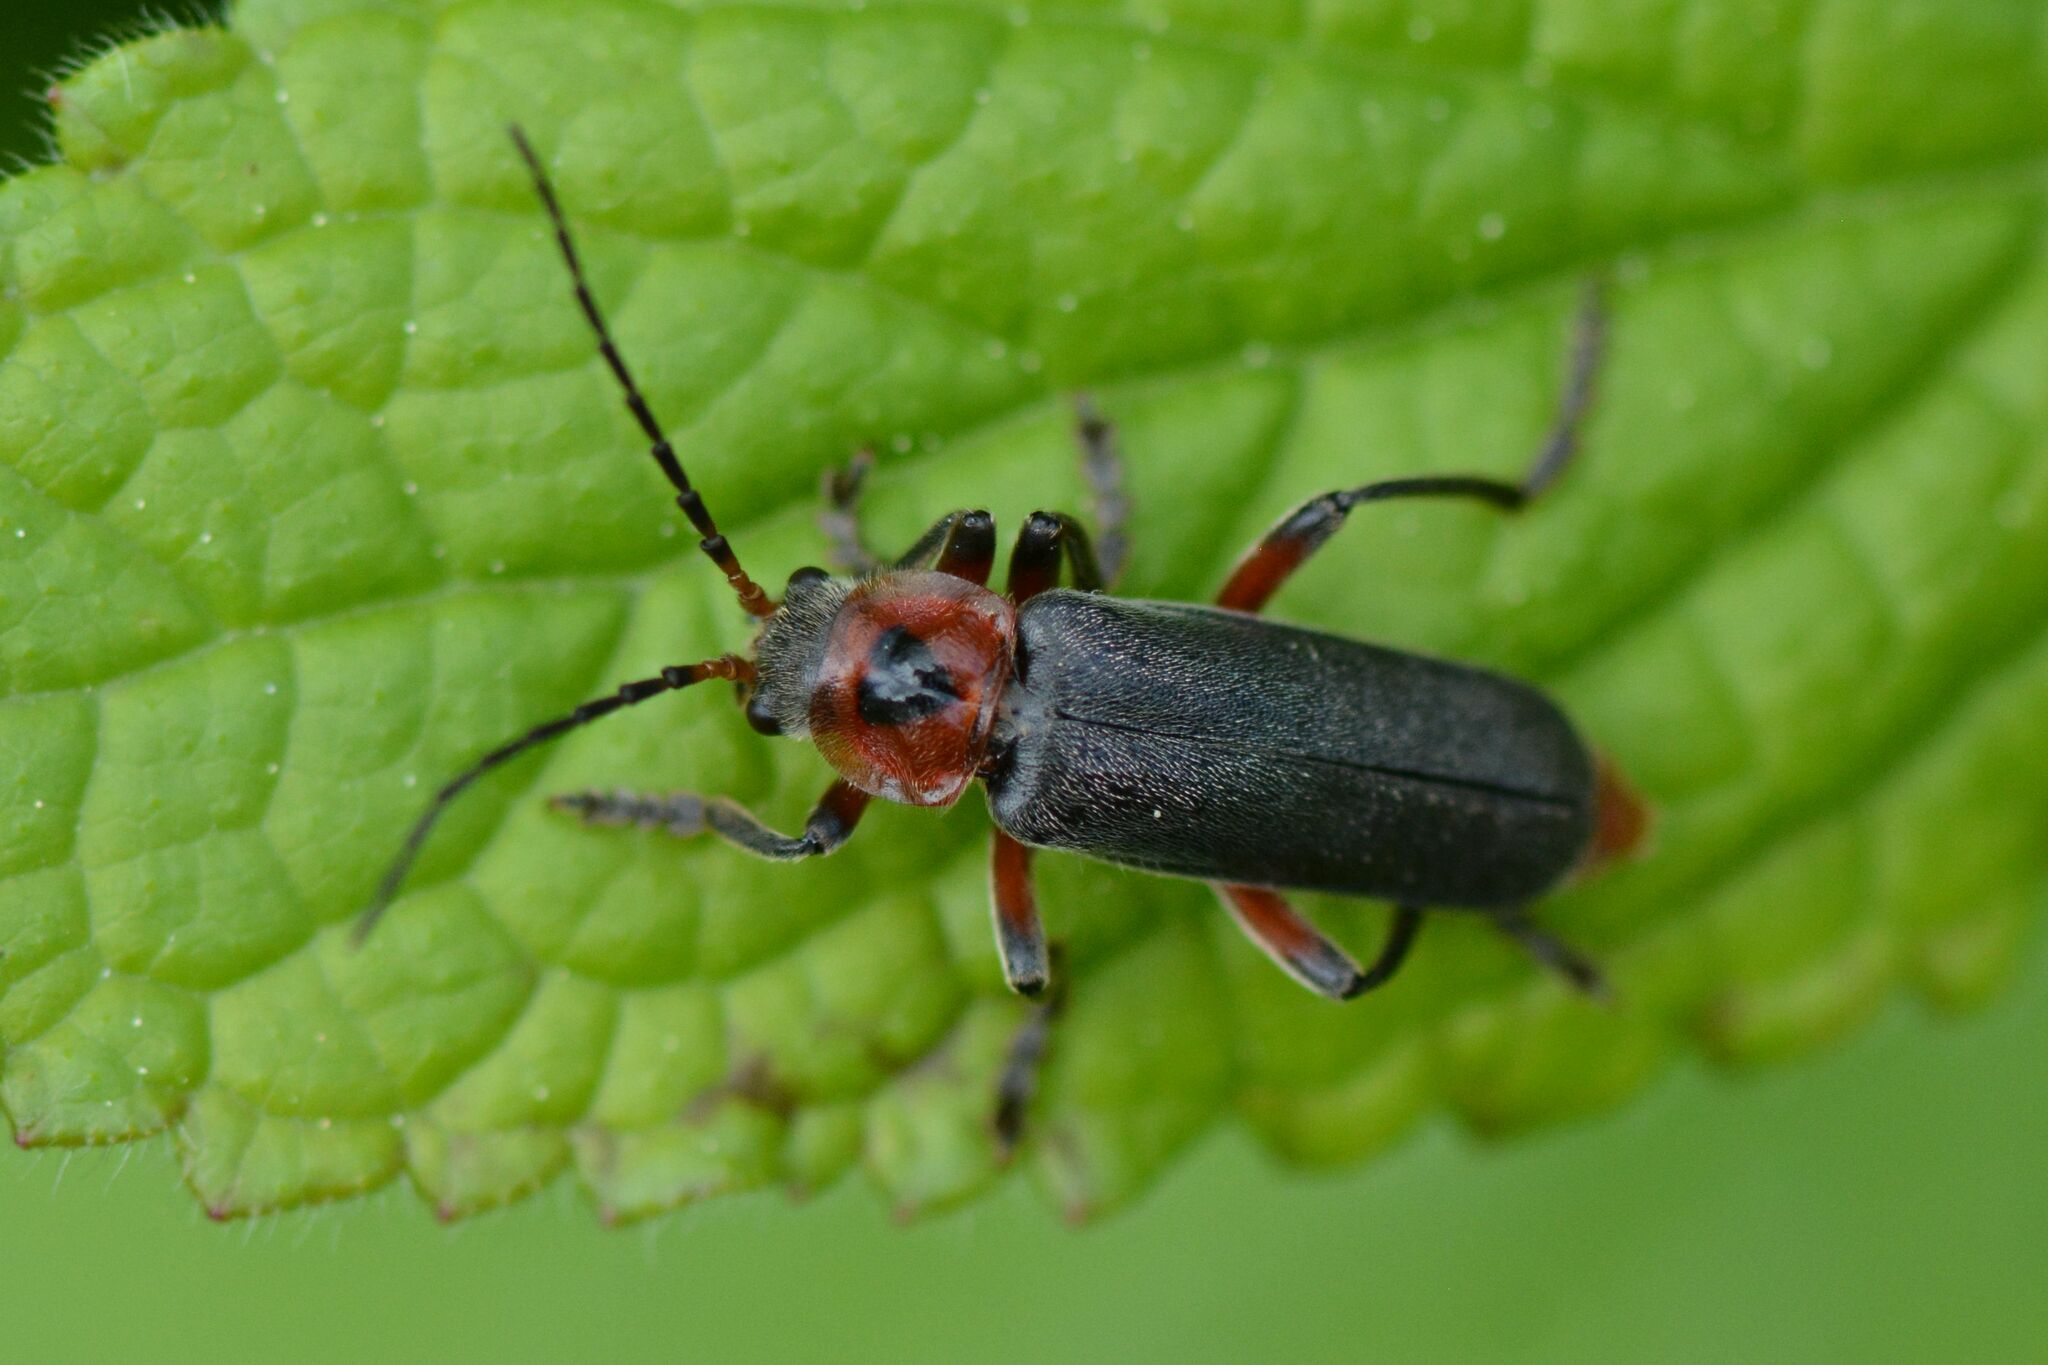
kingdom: Animalia
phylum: Arthropoda
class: Insecta
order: Coleoptera
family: Cantharidae
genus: Cantharis
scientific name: Cantharis rustica
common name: Soldier beetle
